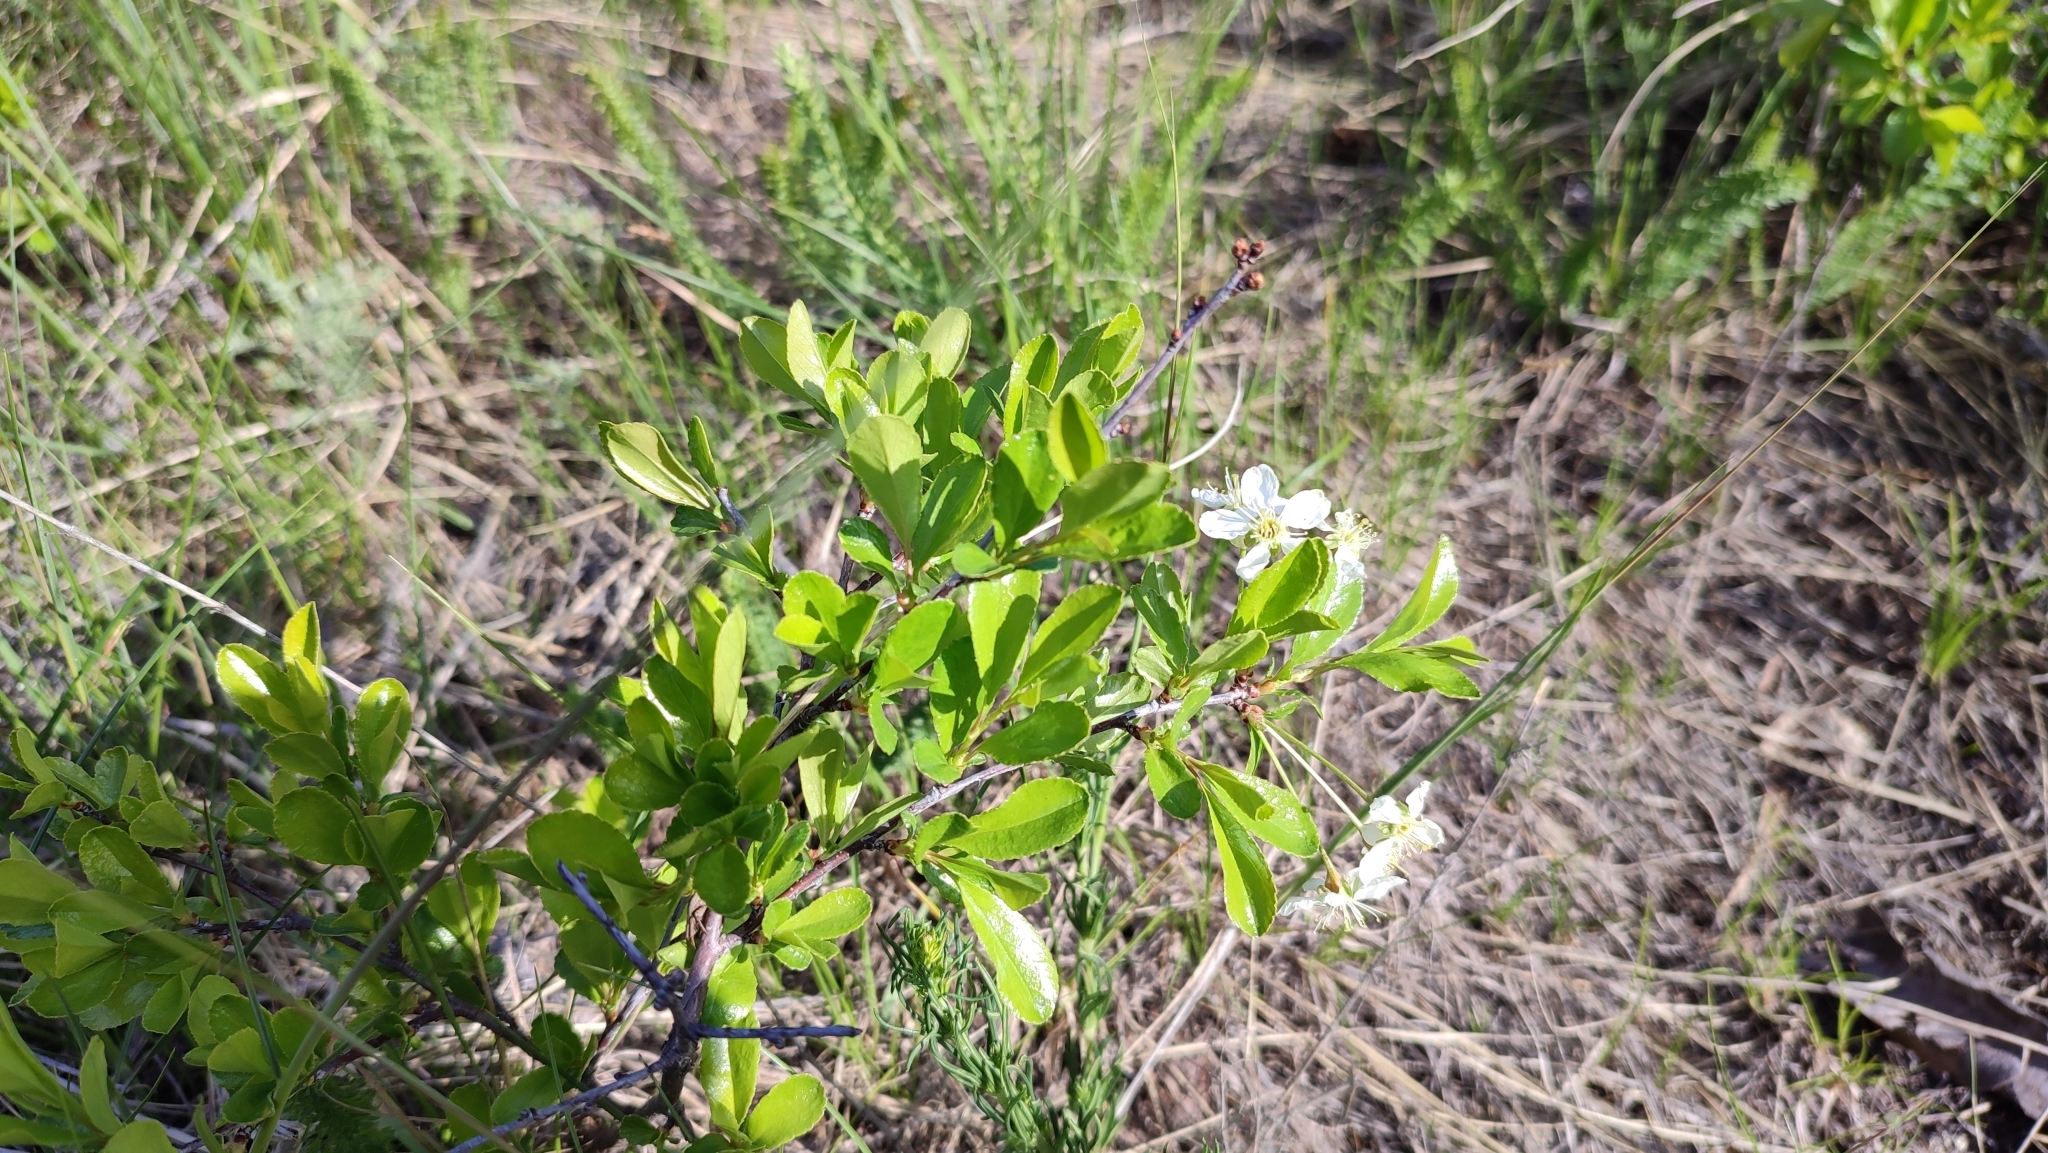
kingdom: Plantae
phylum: Tracheophyta
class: Magnoliopsida
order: Rosales
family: Rosaceae
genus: Prunus
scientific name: Prunus fruticosa
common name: European dwarf cherry
